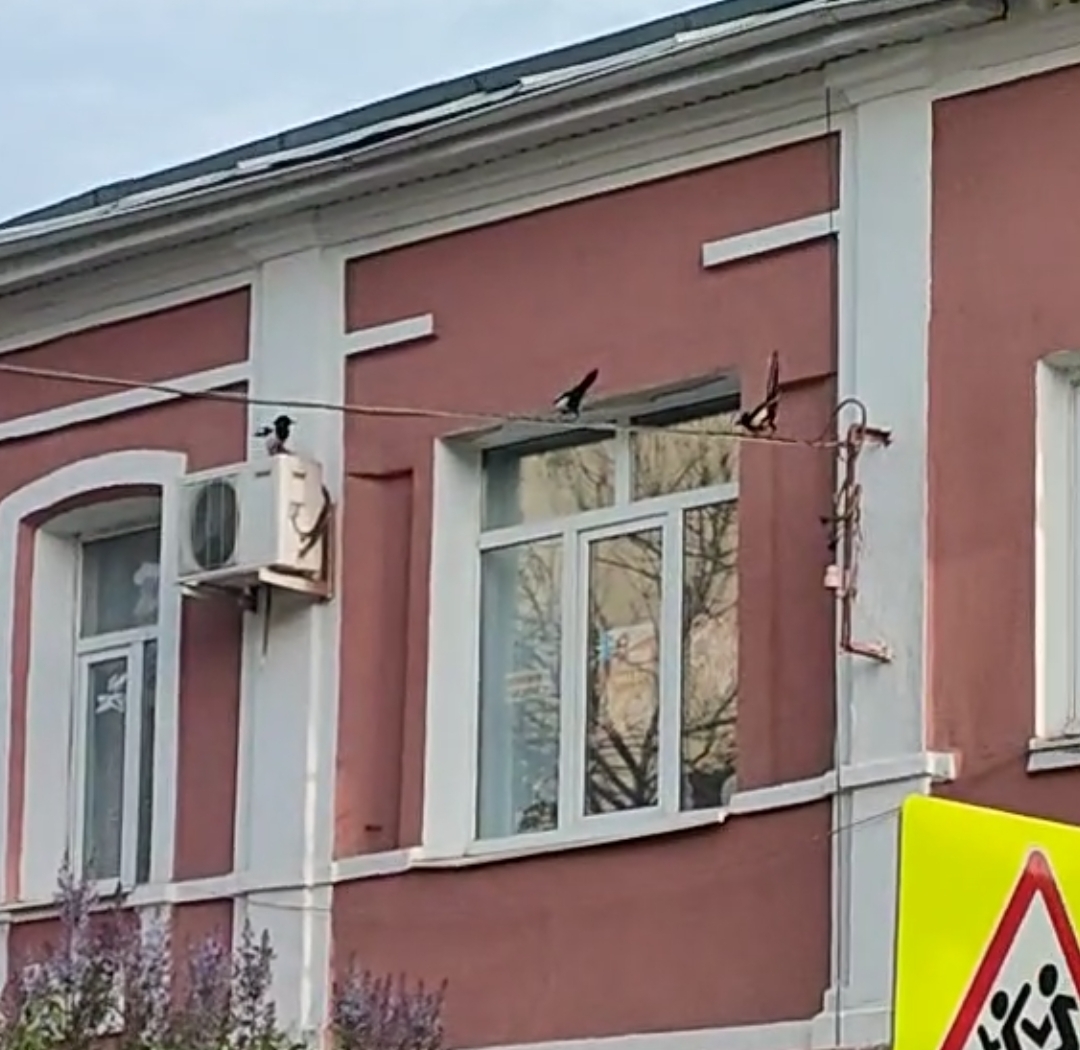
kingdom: Animalia
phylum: Chordata
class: Aves
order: Passeriformes
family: Corvidae
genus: Pica
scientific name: Pica pica
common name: Eurasian magpie
